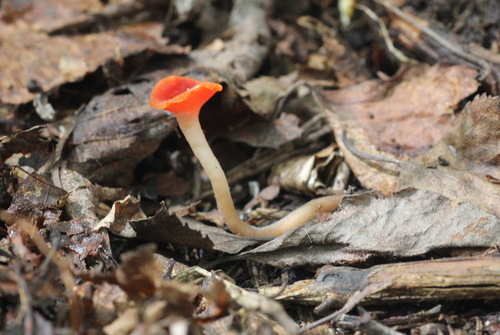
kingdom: Fungi
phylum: Ascomycota
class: Pezizomycetes
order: Pezizales
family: Sarcoscyphaceae
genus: Microstoma
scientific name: Microstoma protractum
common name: Rosy goblet
